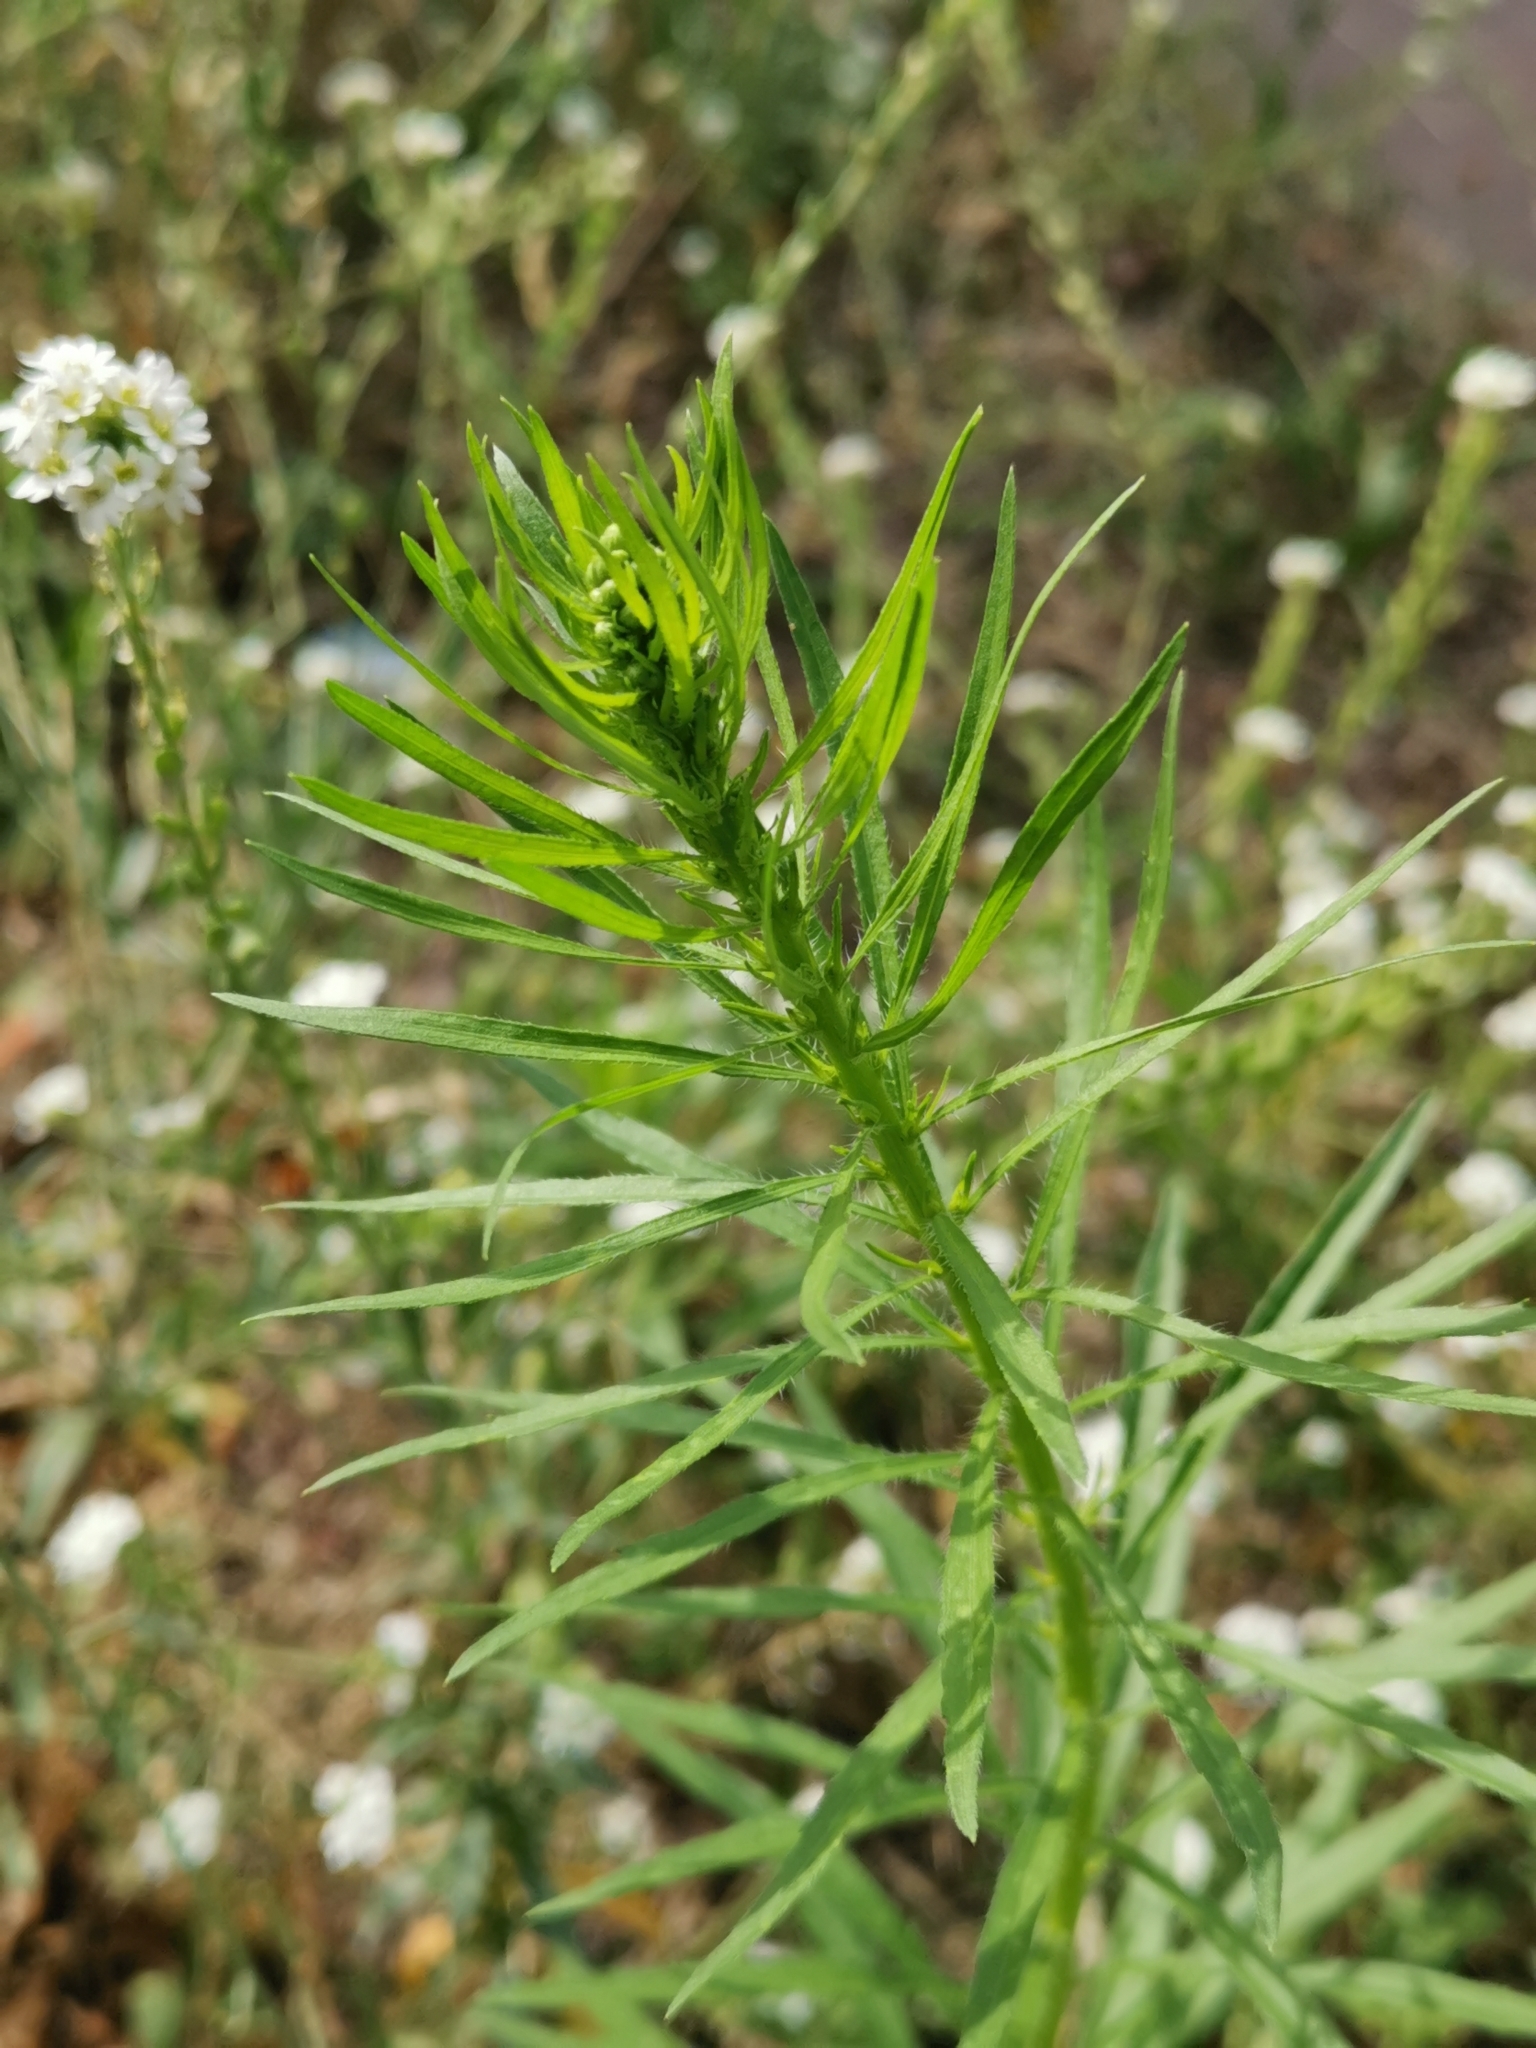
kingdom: Plantae
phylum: Tracheophyta
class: Magnoliopsida
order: Asterales
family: Asteraceae
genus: Erigeron
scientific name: Erigeron canadensis
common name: Canadian fleabane
